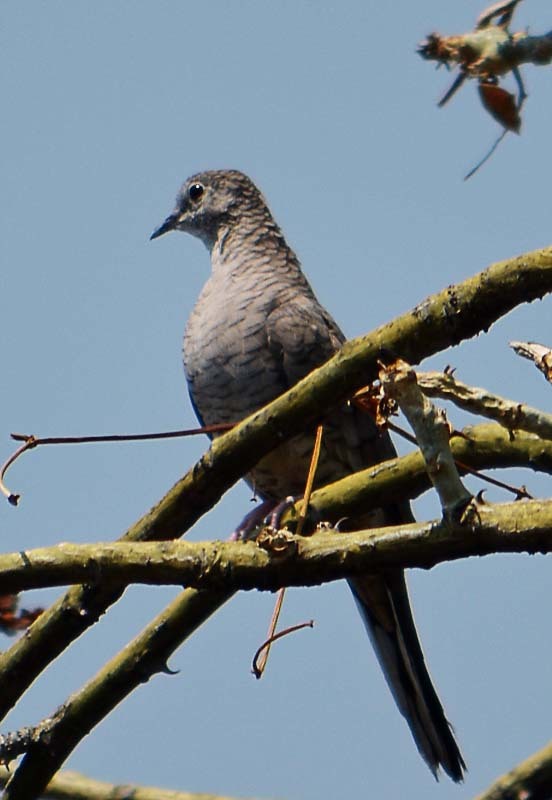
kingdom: Animalia
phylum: Chordata
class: Aves
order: Columbiformes
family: Columbidae
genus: Columbina
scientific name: Columbina inca
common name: Inca dove
